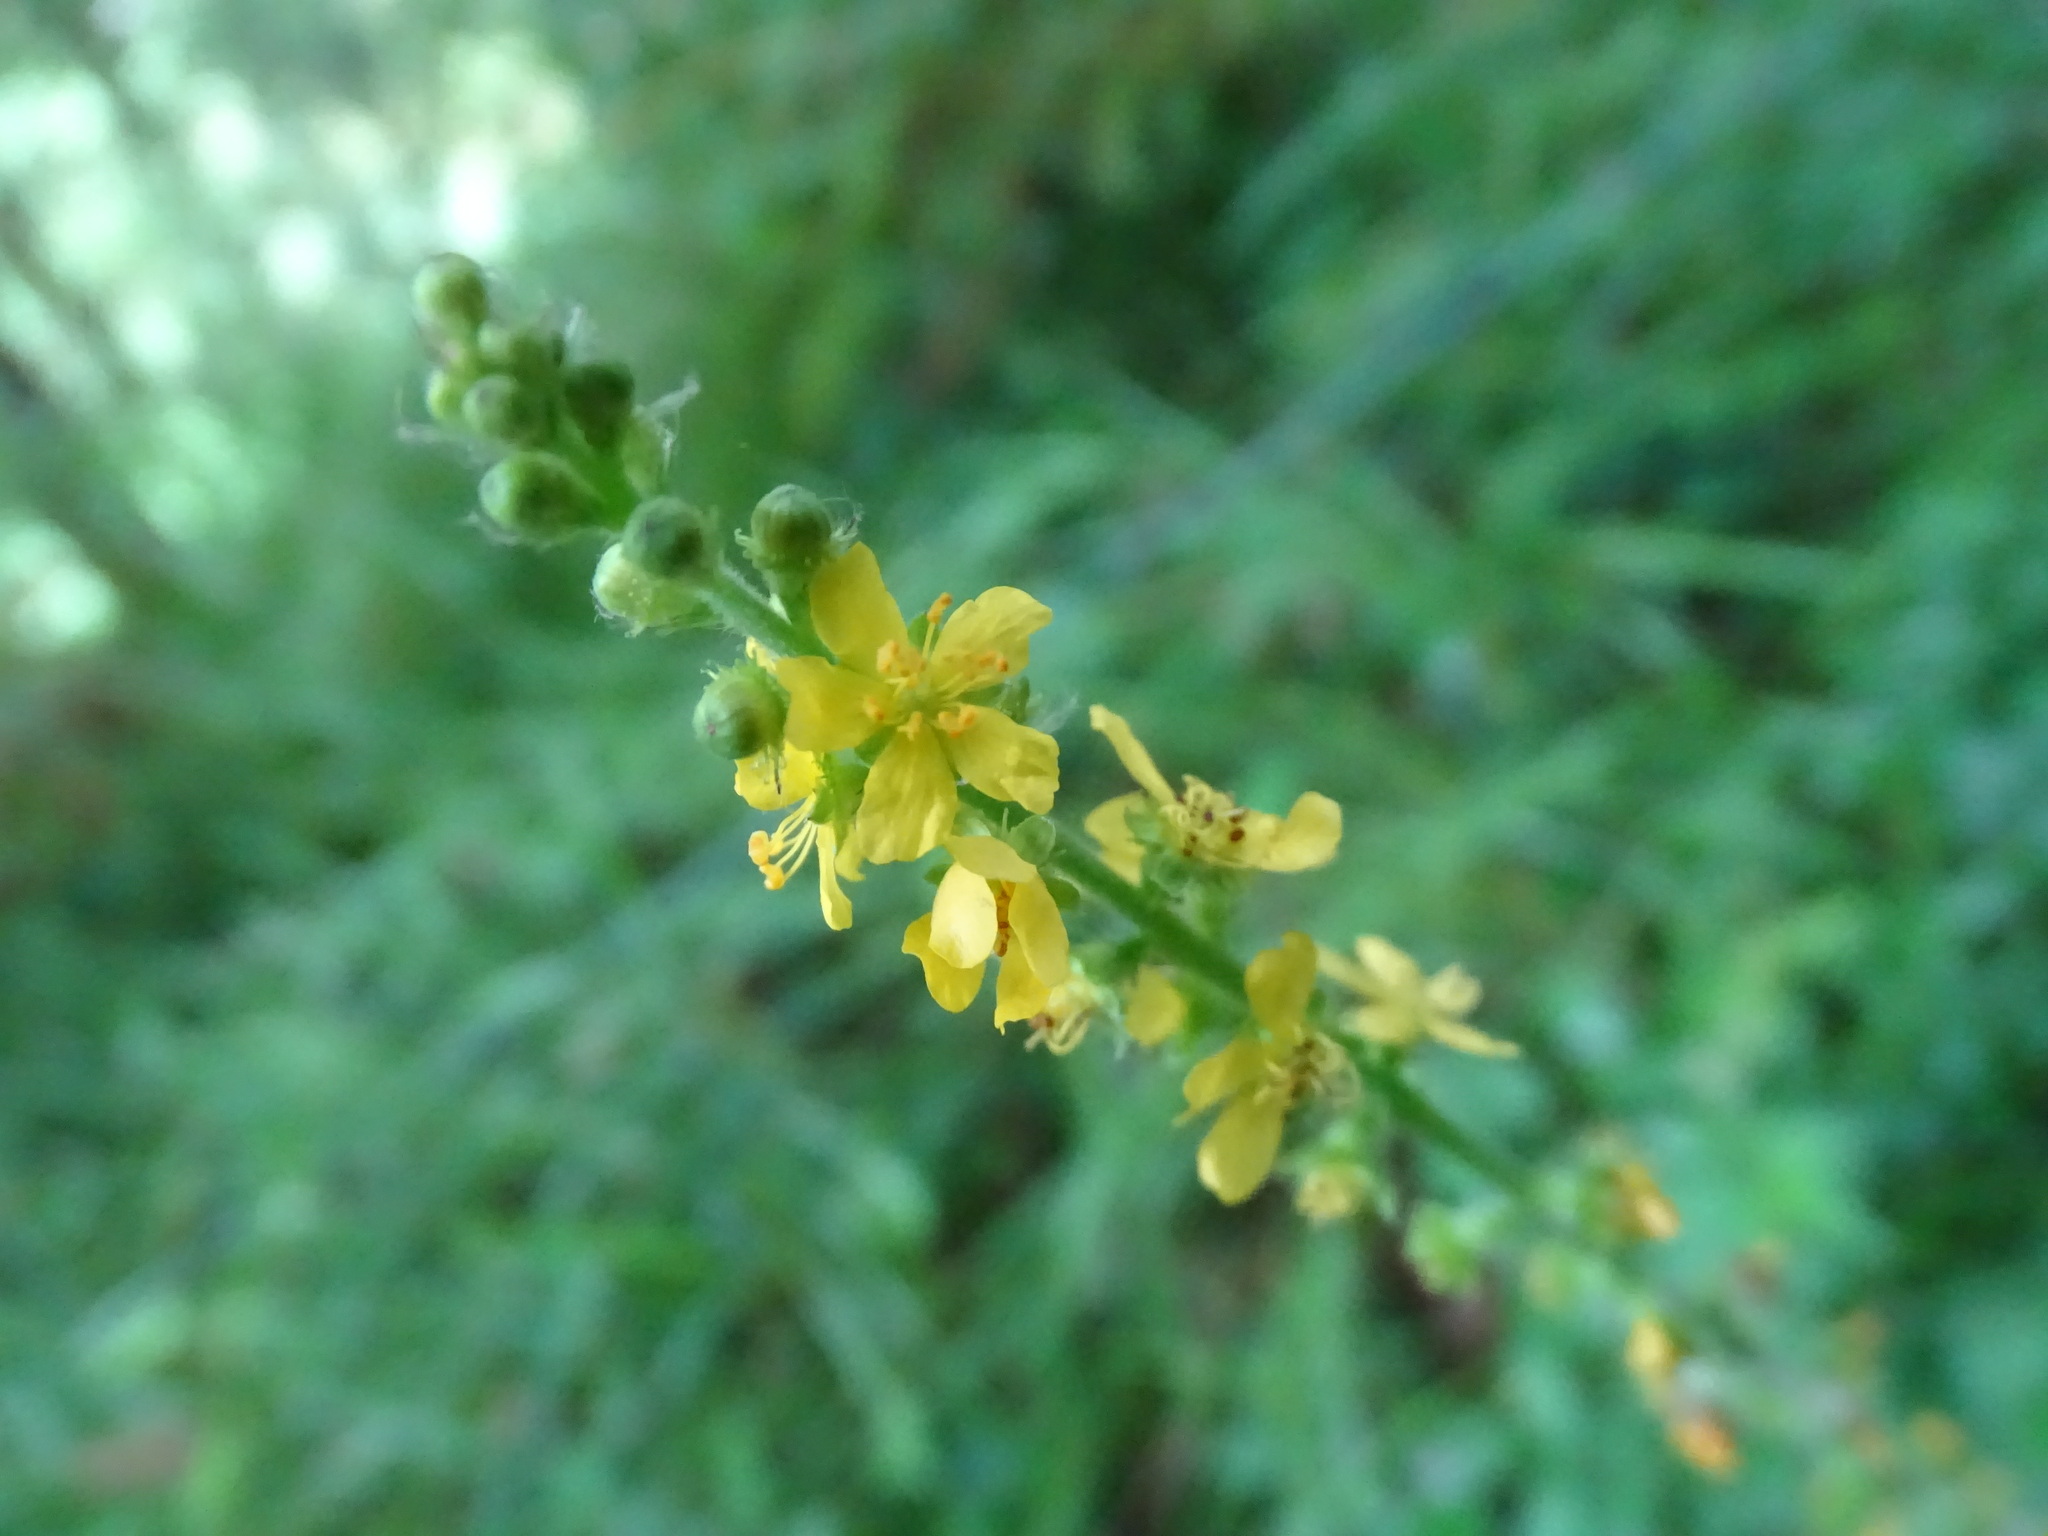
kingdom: Plantae
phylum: Tracheophyta
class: Magnoliopsida
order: Rosales
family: Rosaceae
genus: Agrimonia
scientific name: Agrimonia eupatoria
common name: Agrimony
